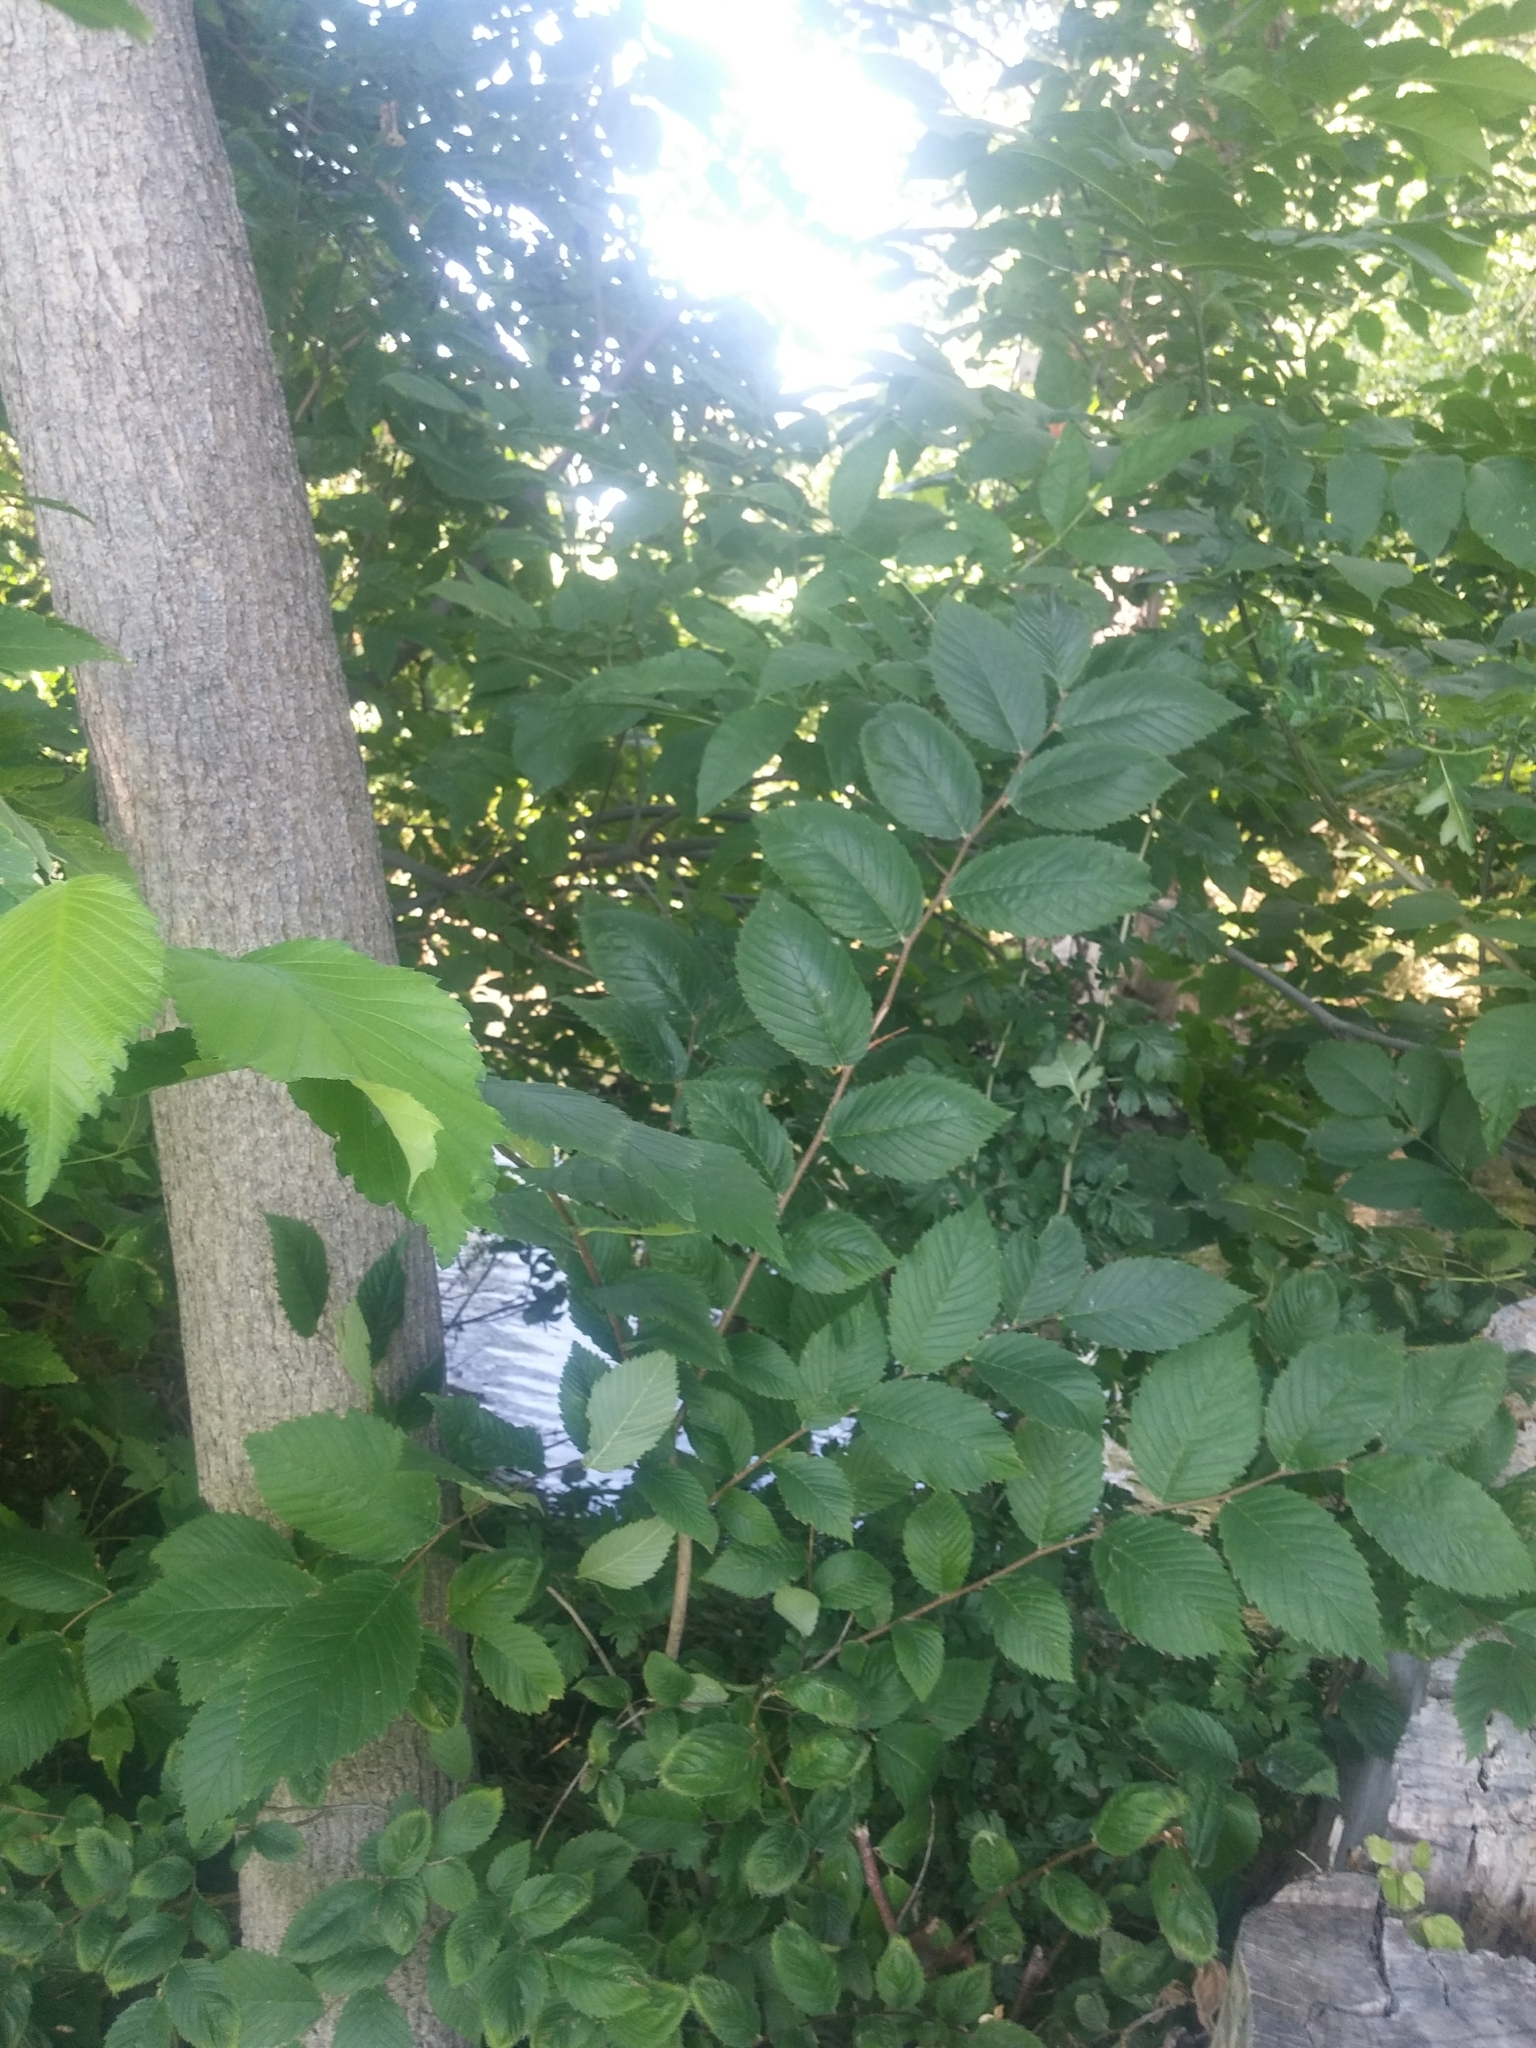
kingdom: Plantae
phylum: Tracheophyta
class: Magnoliopsida
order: Rosales
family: Ulmaceae
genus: Ulmus
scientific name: Ulmus americana
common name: American elm
